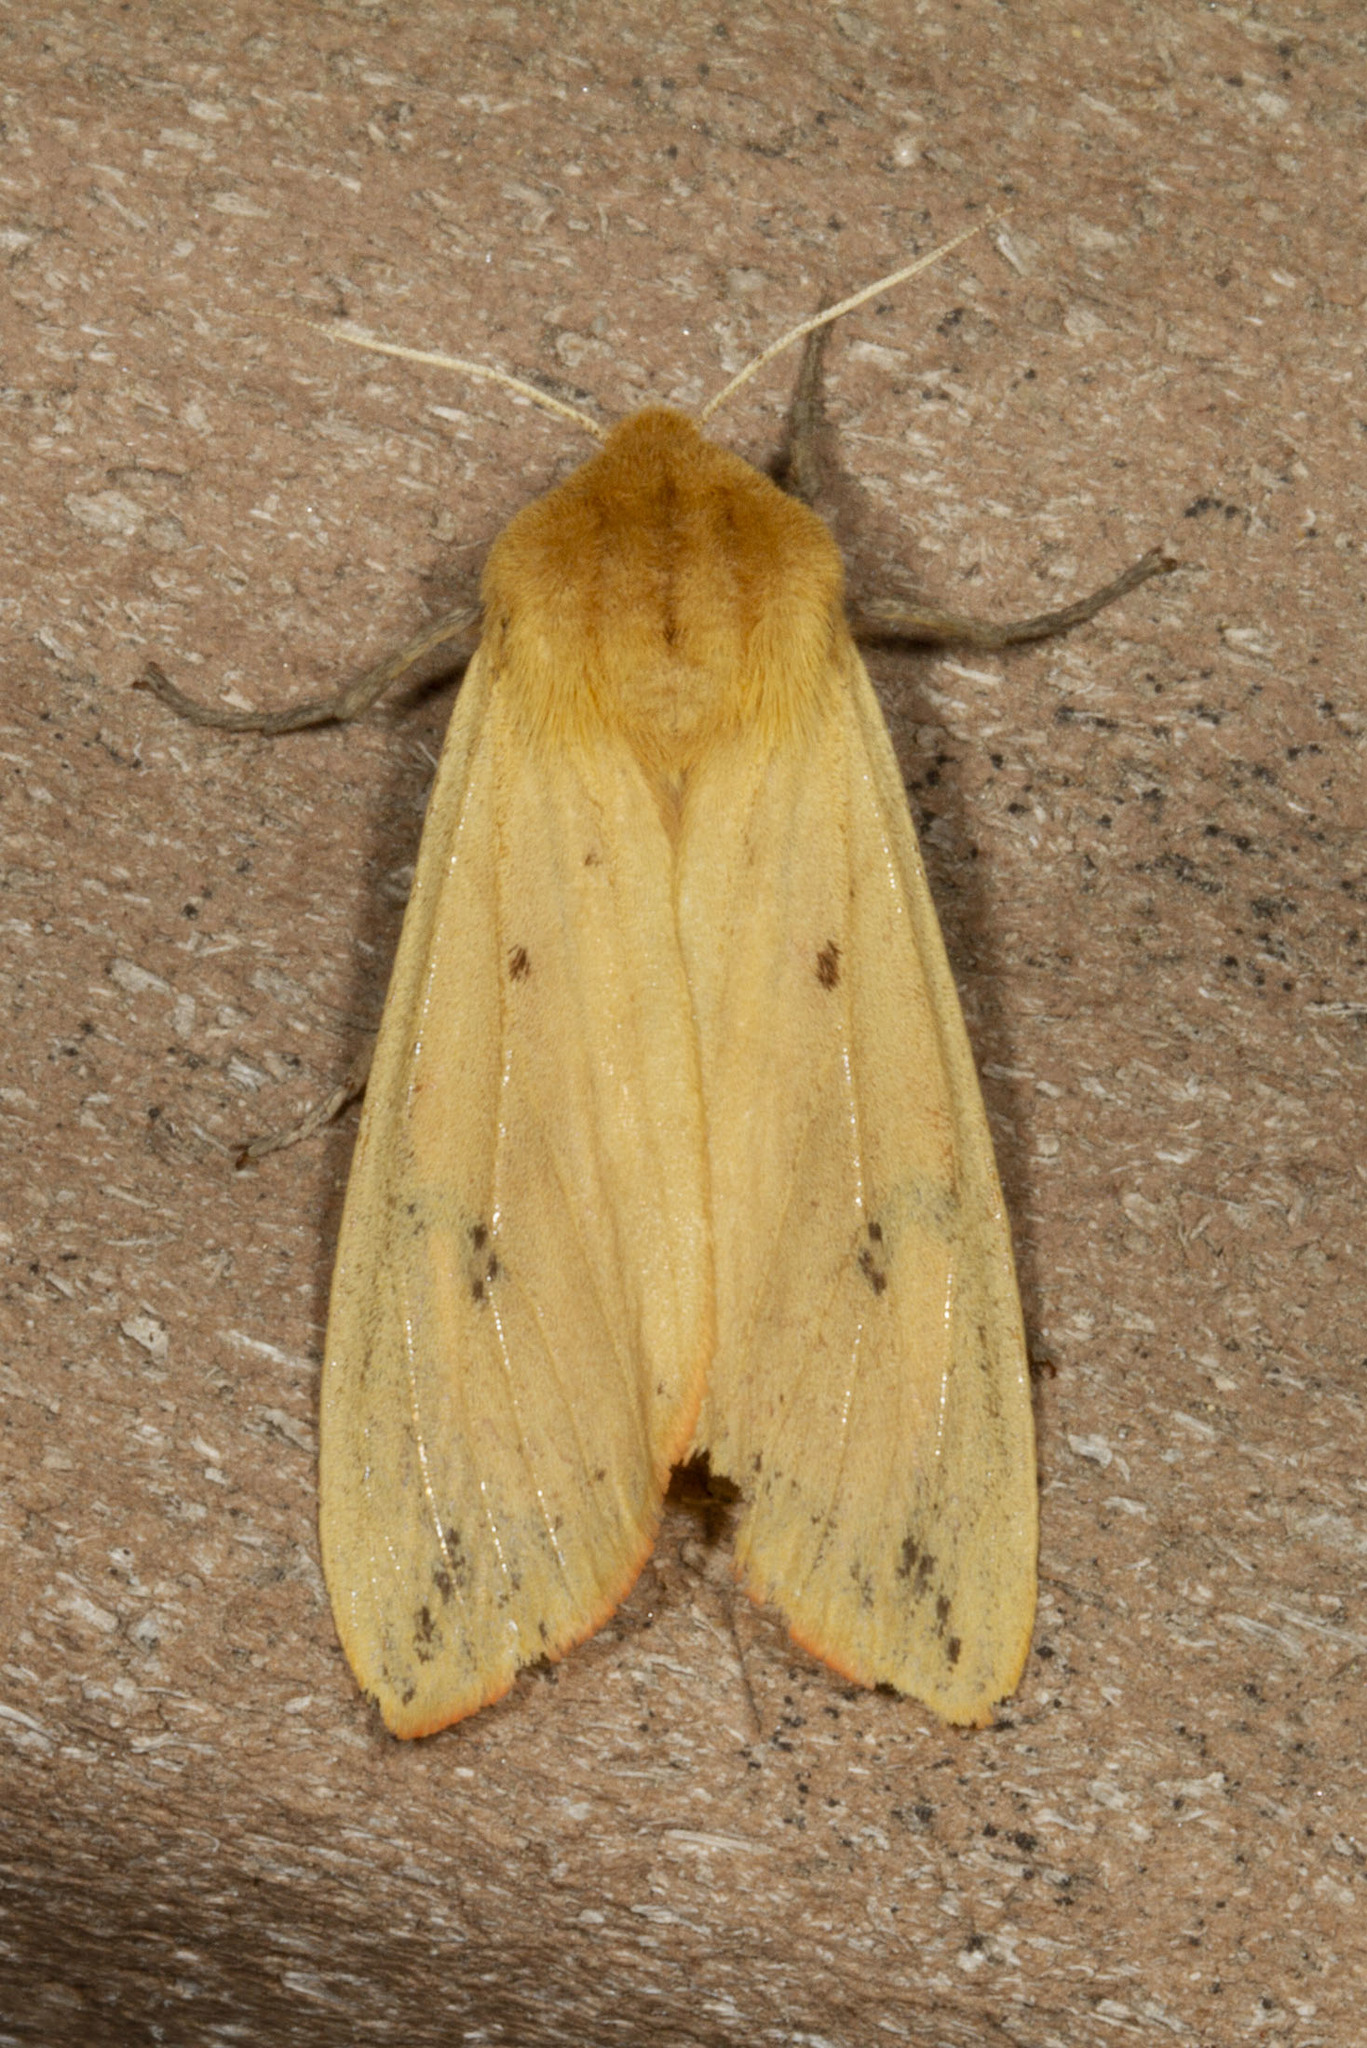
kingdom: Animalia
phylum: Arthropoda
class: Insecta
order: Lepidoptera
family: Erebidae
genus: Pyrrharctia
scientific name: Pyrrharctia isabella
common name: Isabella tiger moth
